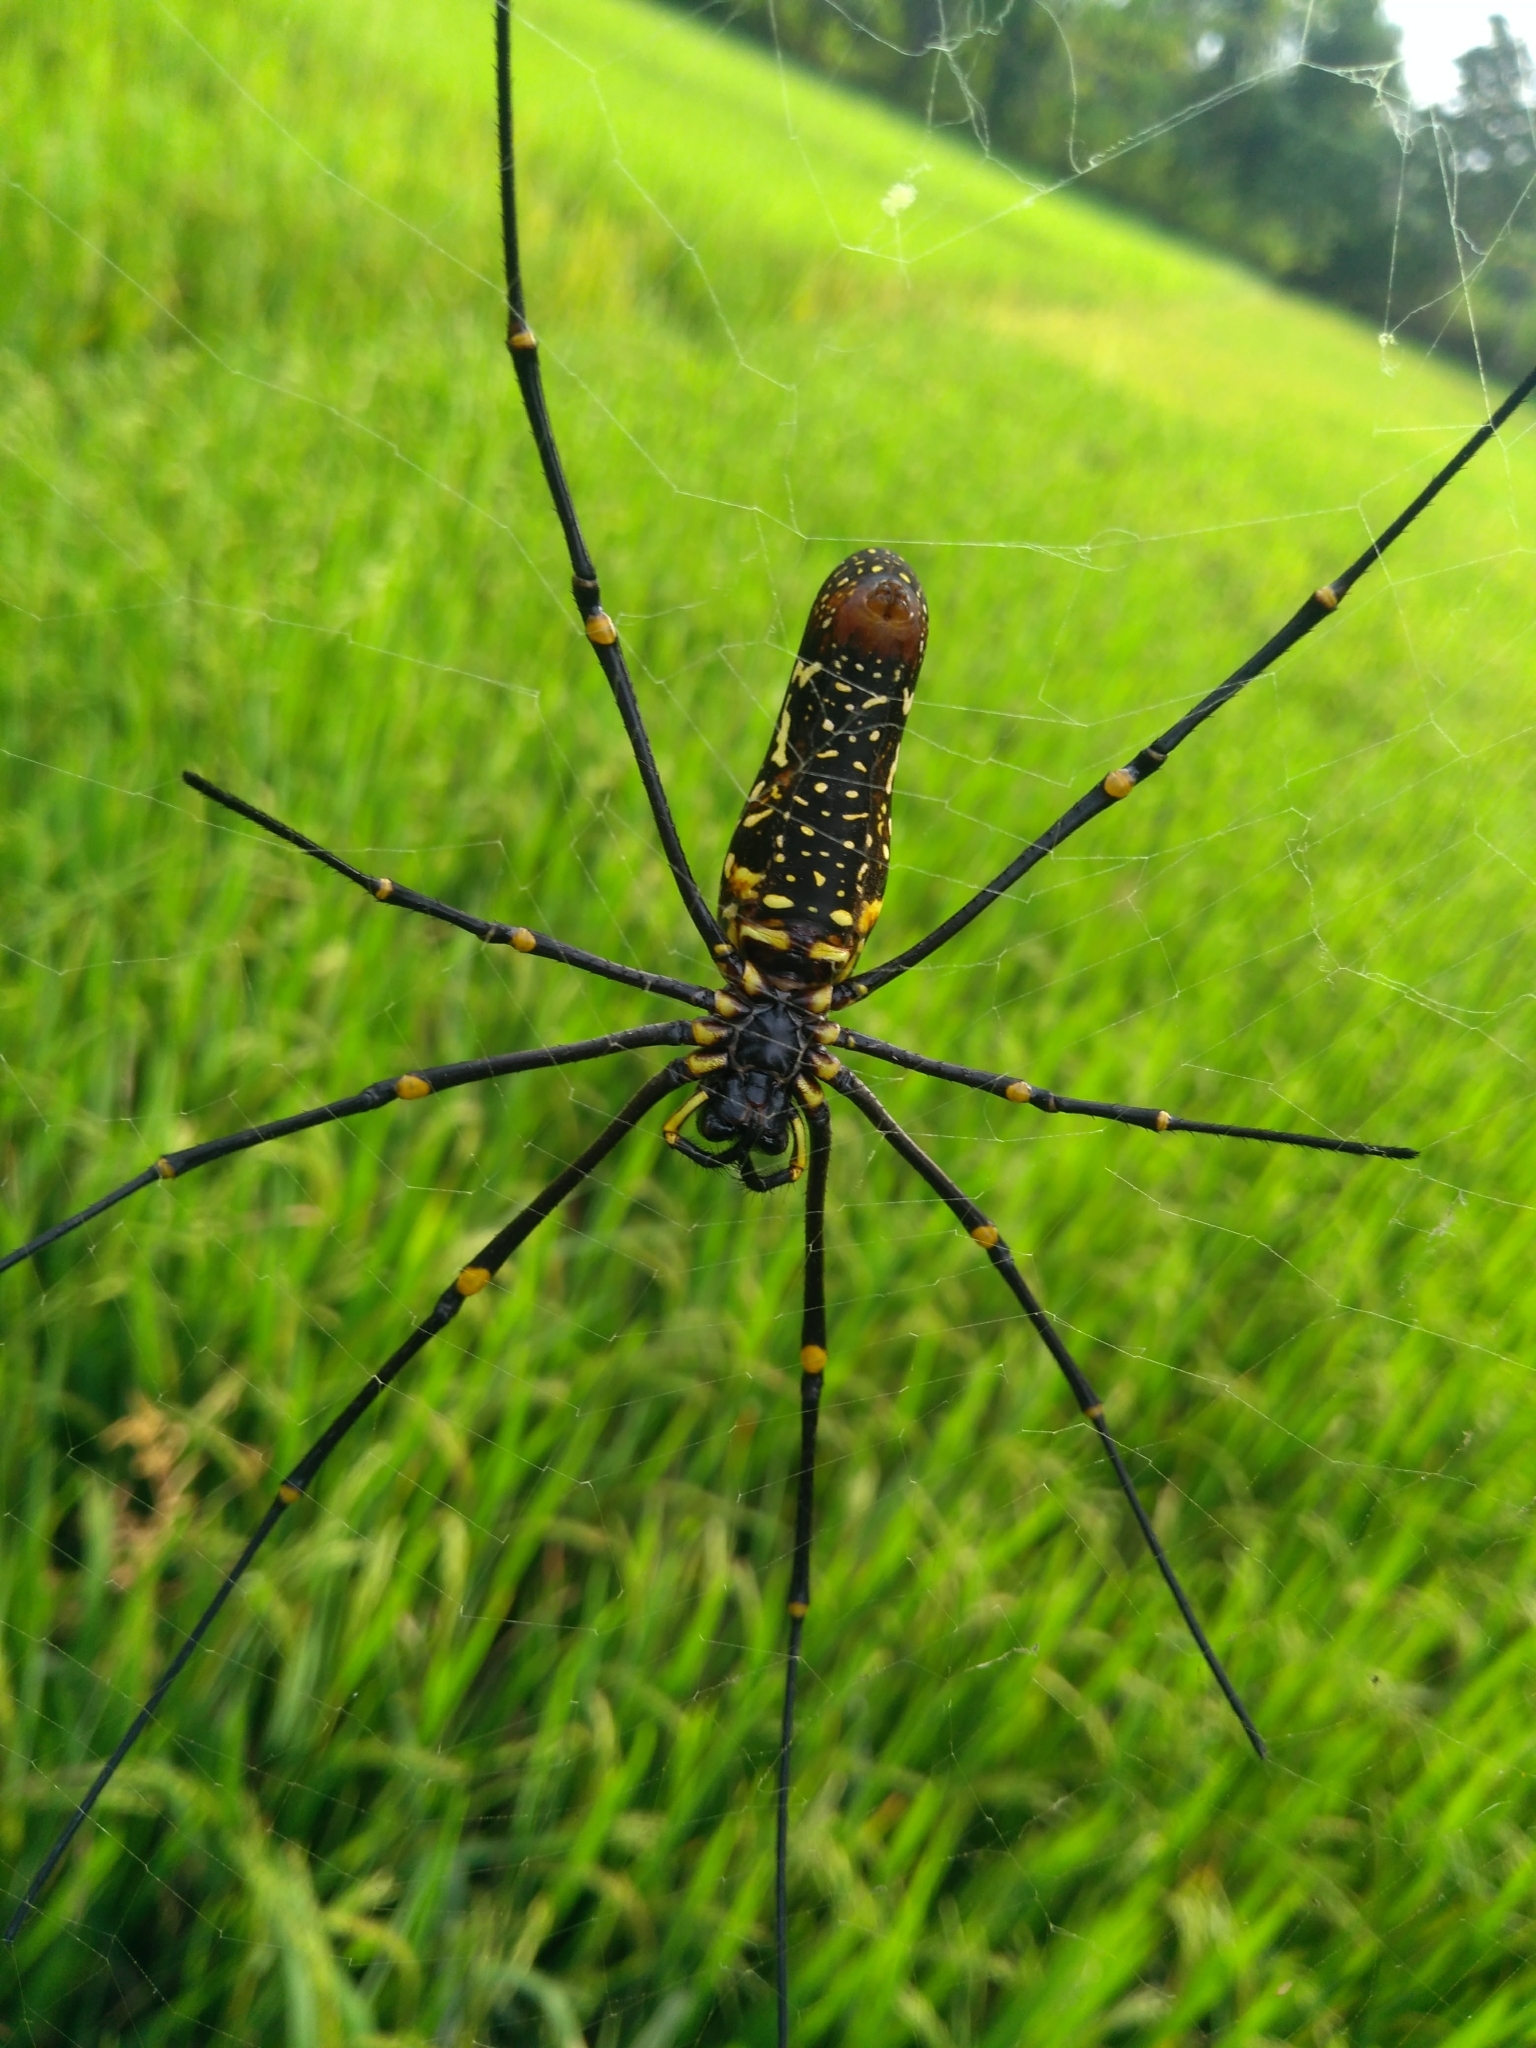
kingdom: Animalia
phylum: Arthropoda
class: Arachnida
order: Araneae
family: Araneidae
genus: Nephila
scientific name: Nephila pilipes
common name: Giant golden orb weaver
